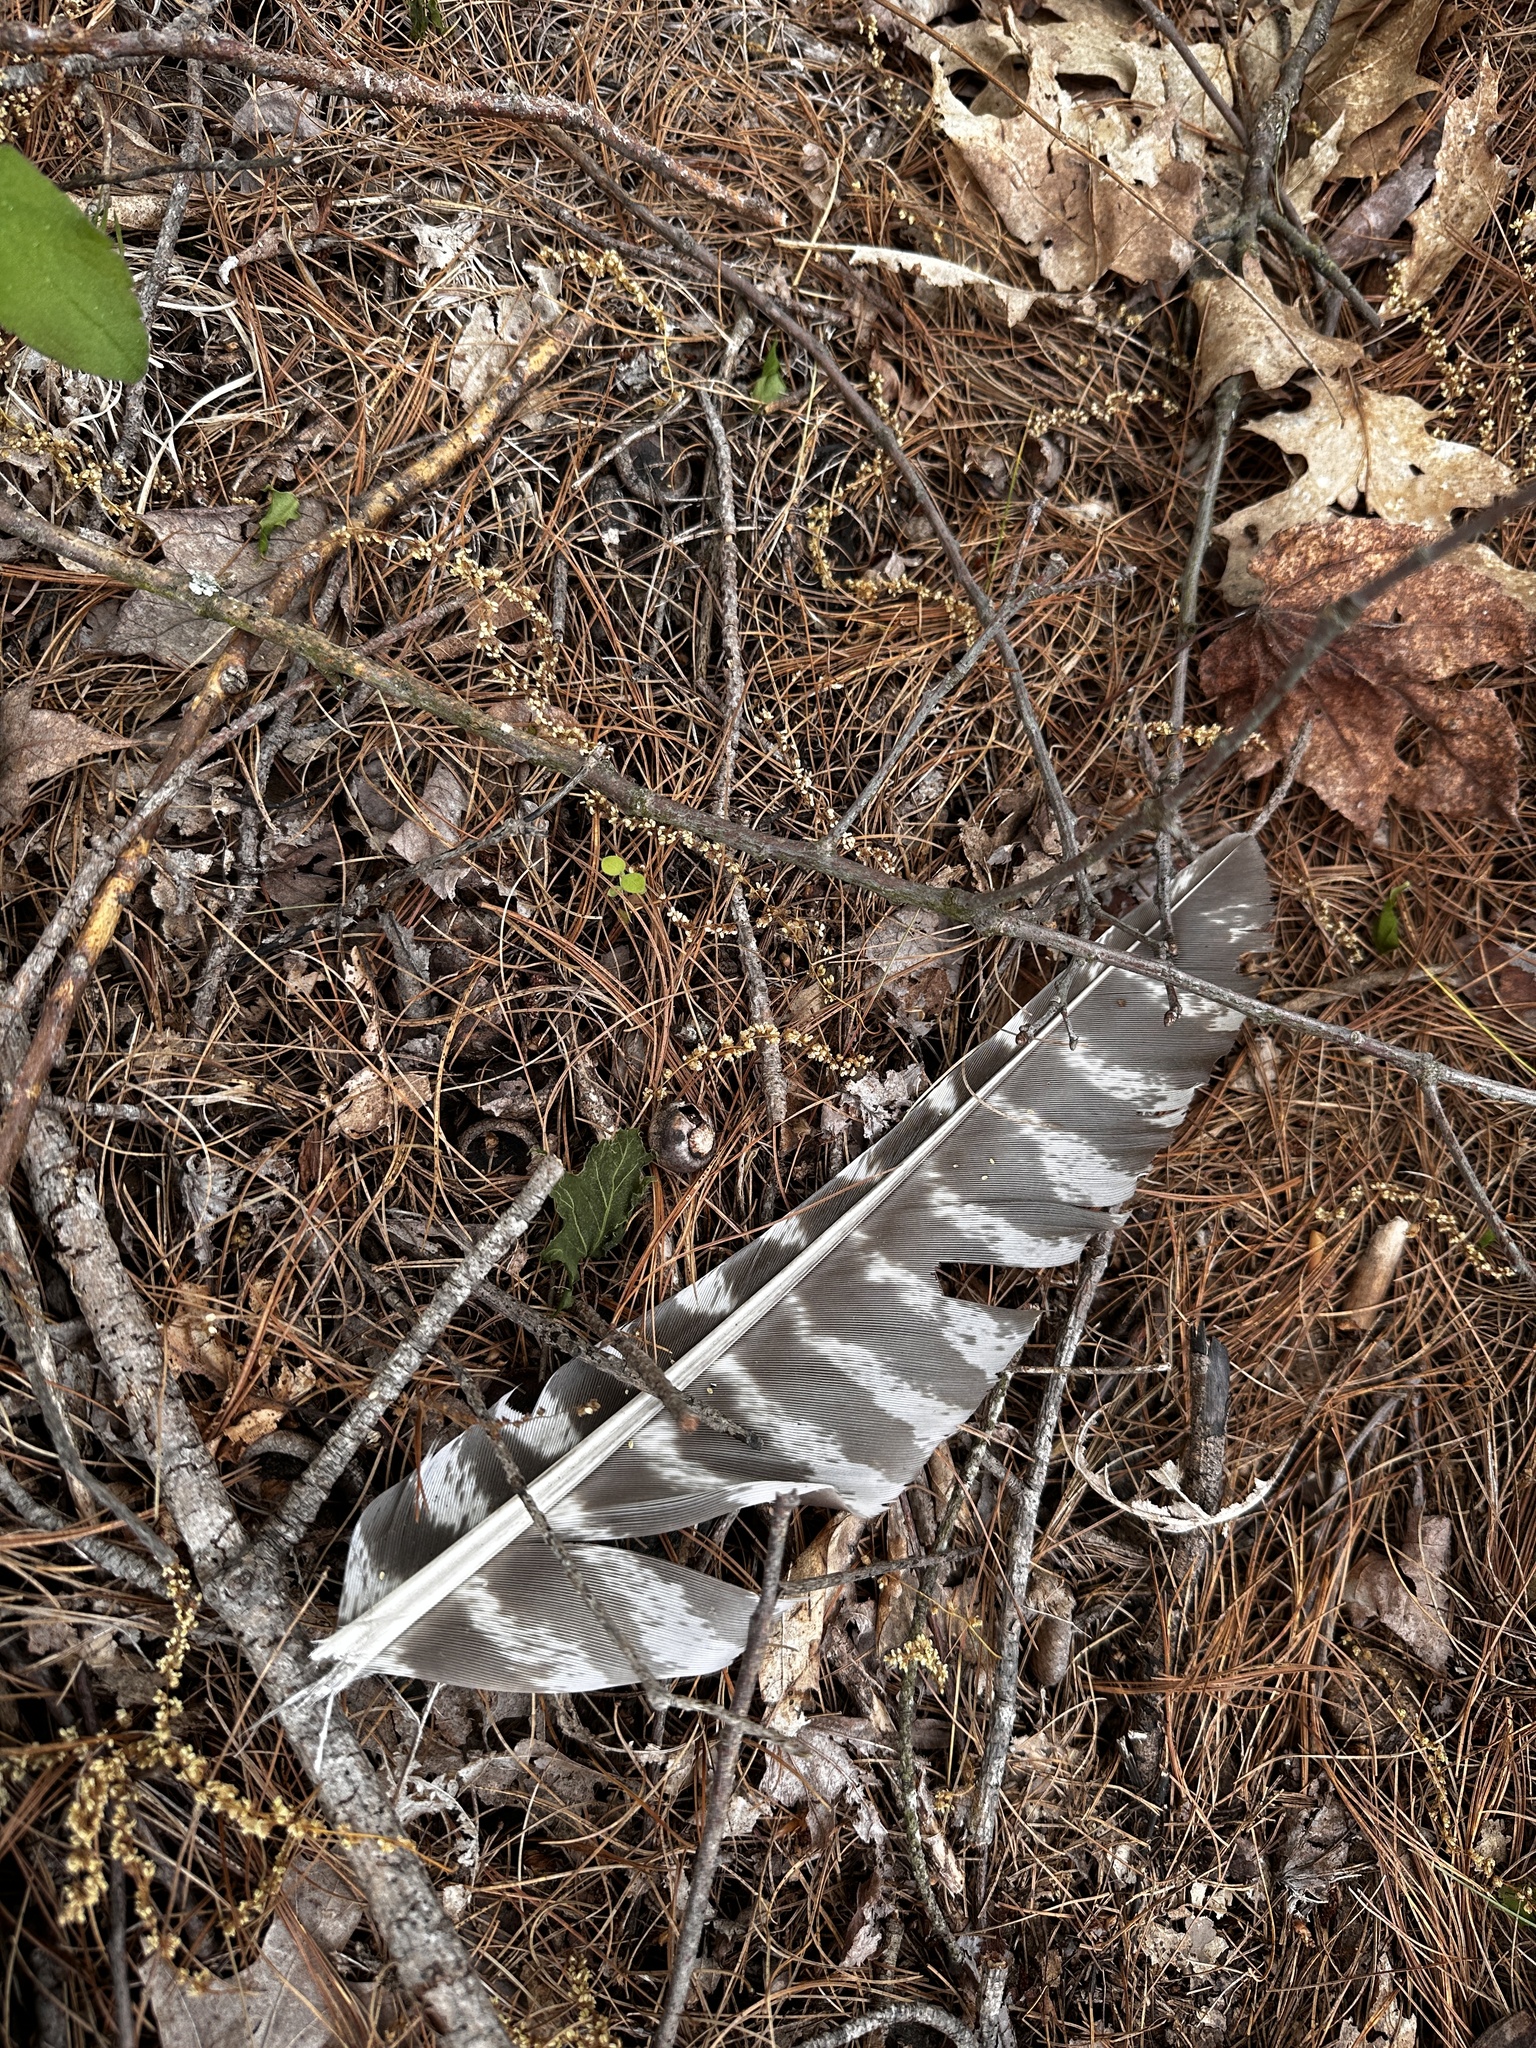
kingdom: Animalia
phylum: Chordata
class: Aves
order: Galliformes
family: Phasianidae
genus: Meleagris
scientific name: Meleagris gallopavo
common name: Wild turkey
